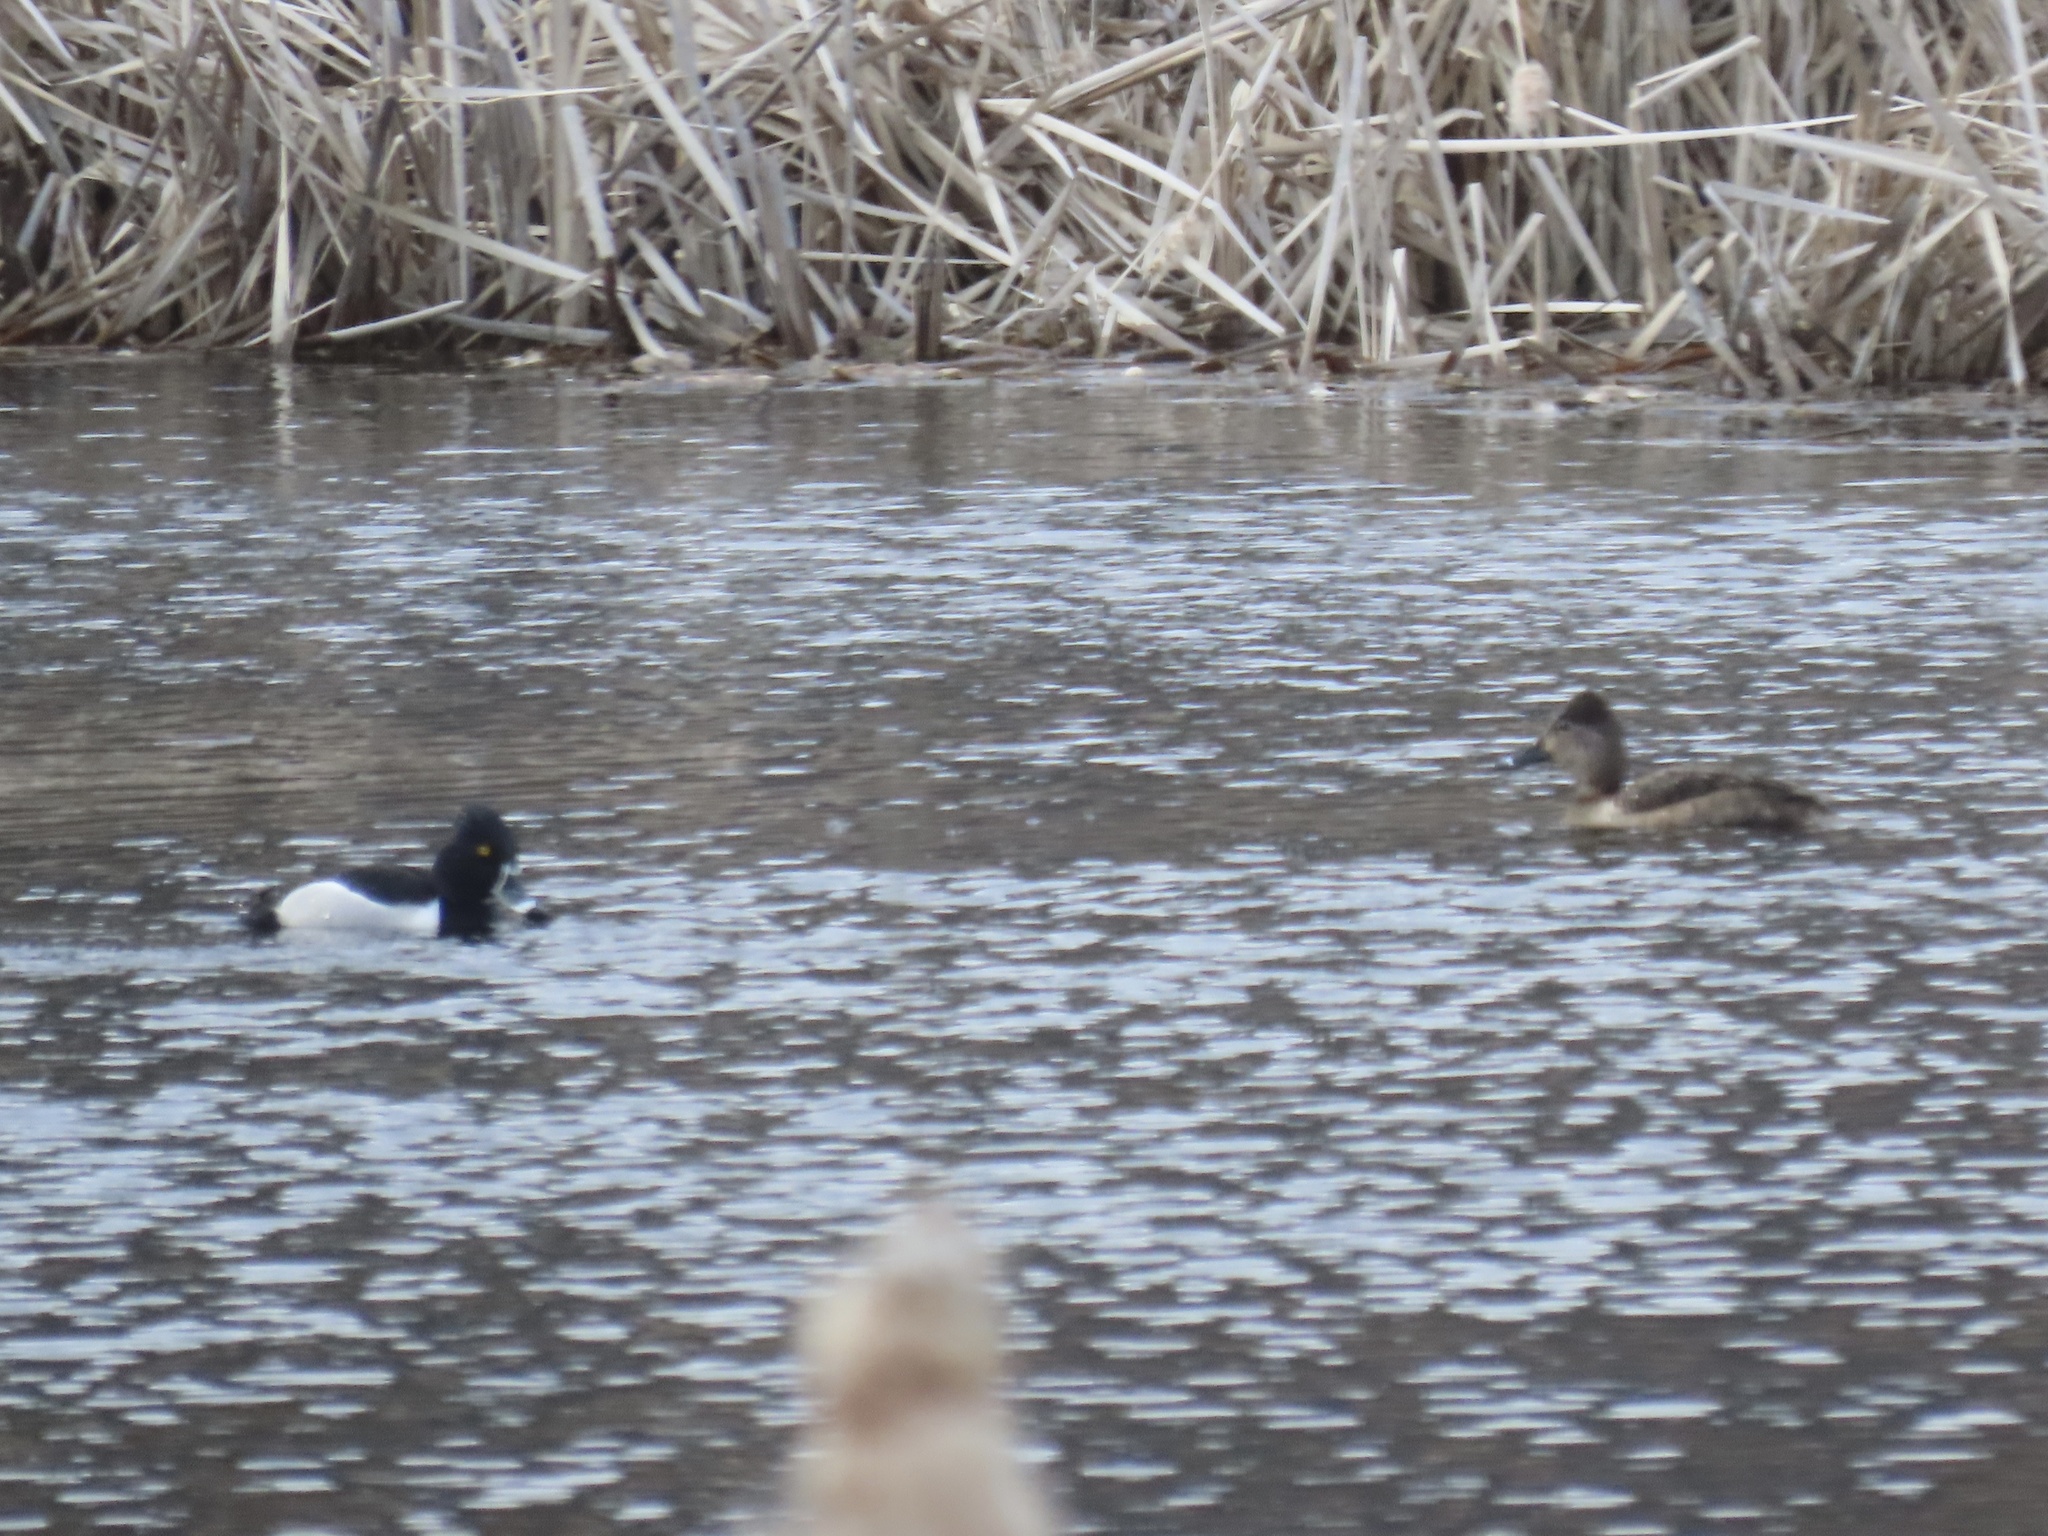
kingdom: Animalia
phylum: Chordata
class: Aves
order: Anseriformes
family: Anatidae
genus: Aythya
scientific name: Aythya collaris
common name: Ring-necked duck
